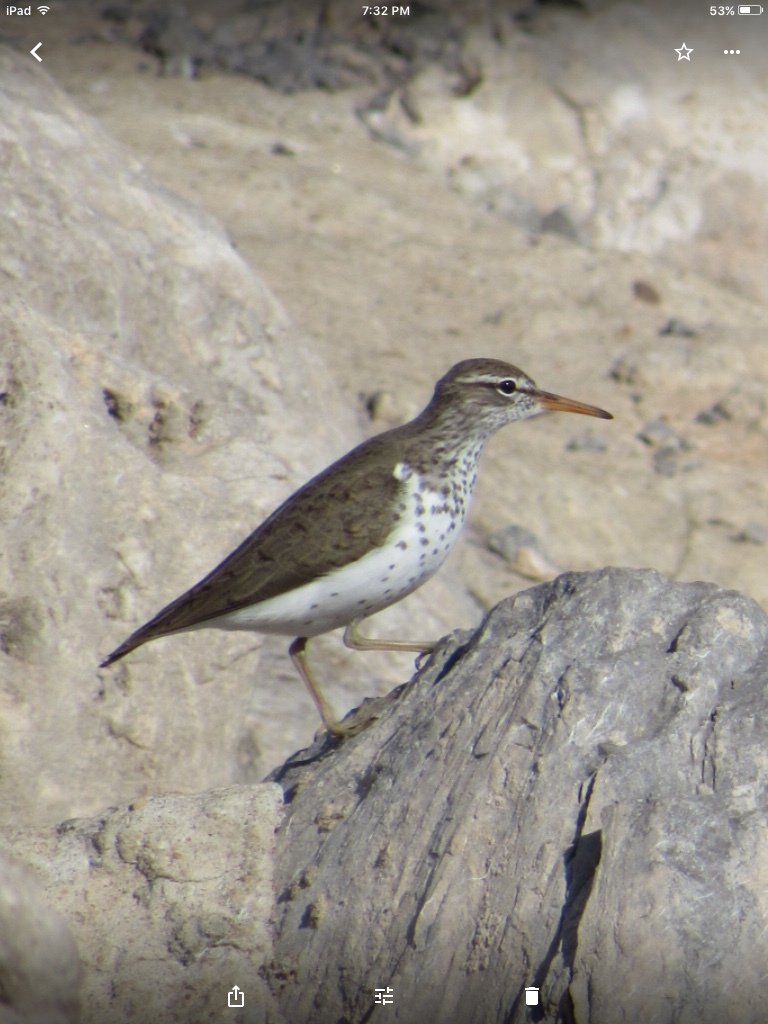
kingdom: Animalia
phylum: Chordata
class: Aves
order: Charadriiformes
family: Scolopacidae
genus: Actitis
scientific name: Actitis macularius
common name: Spotted sandpiper
